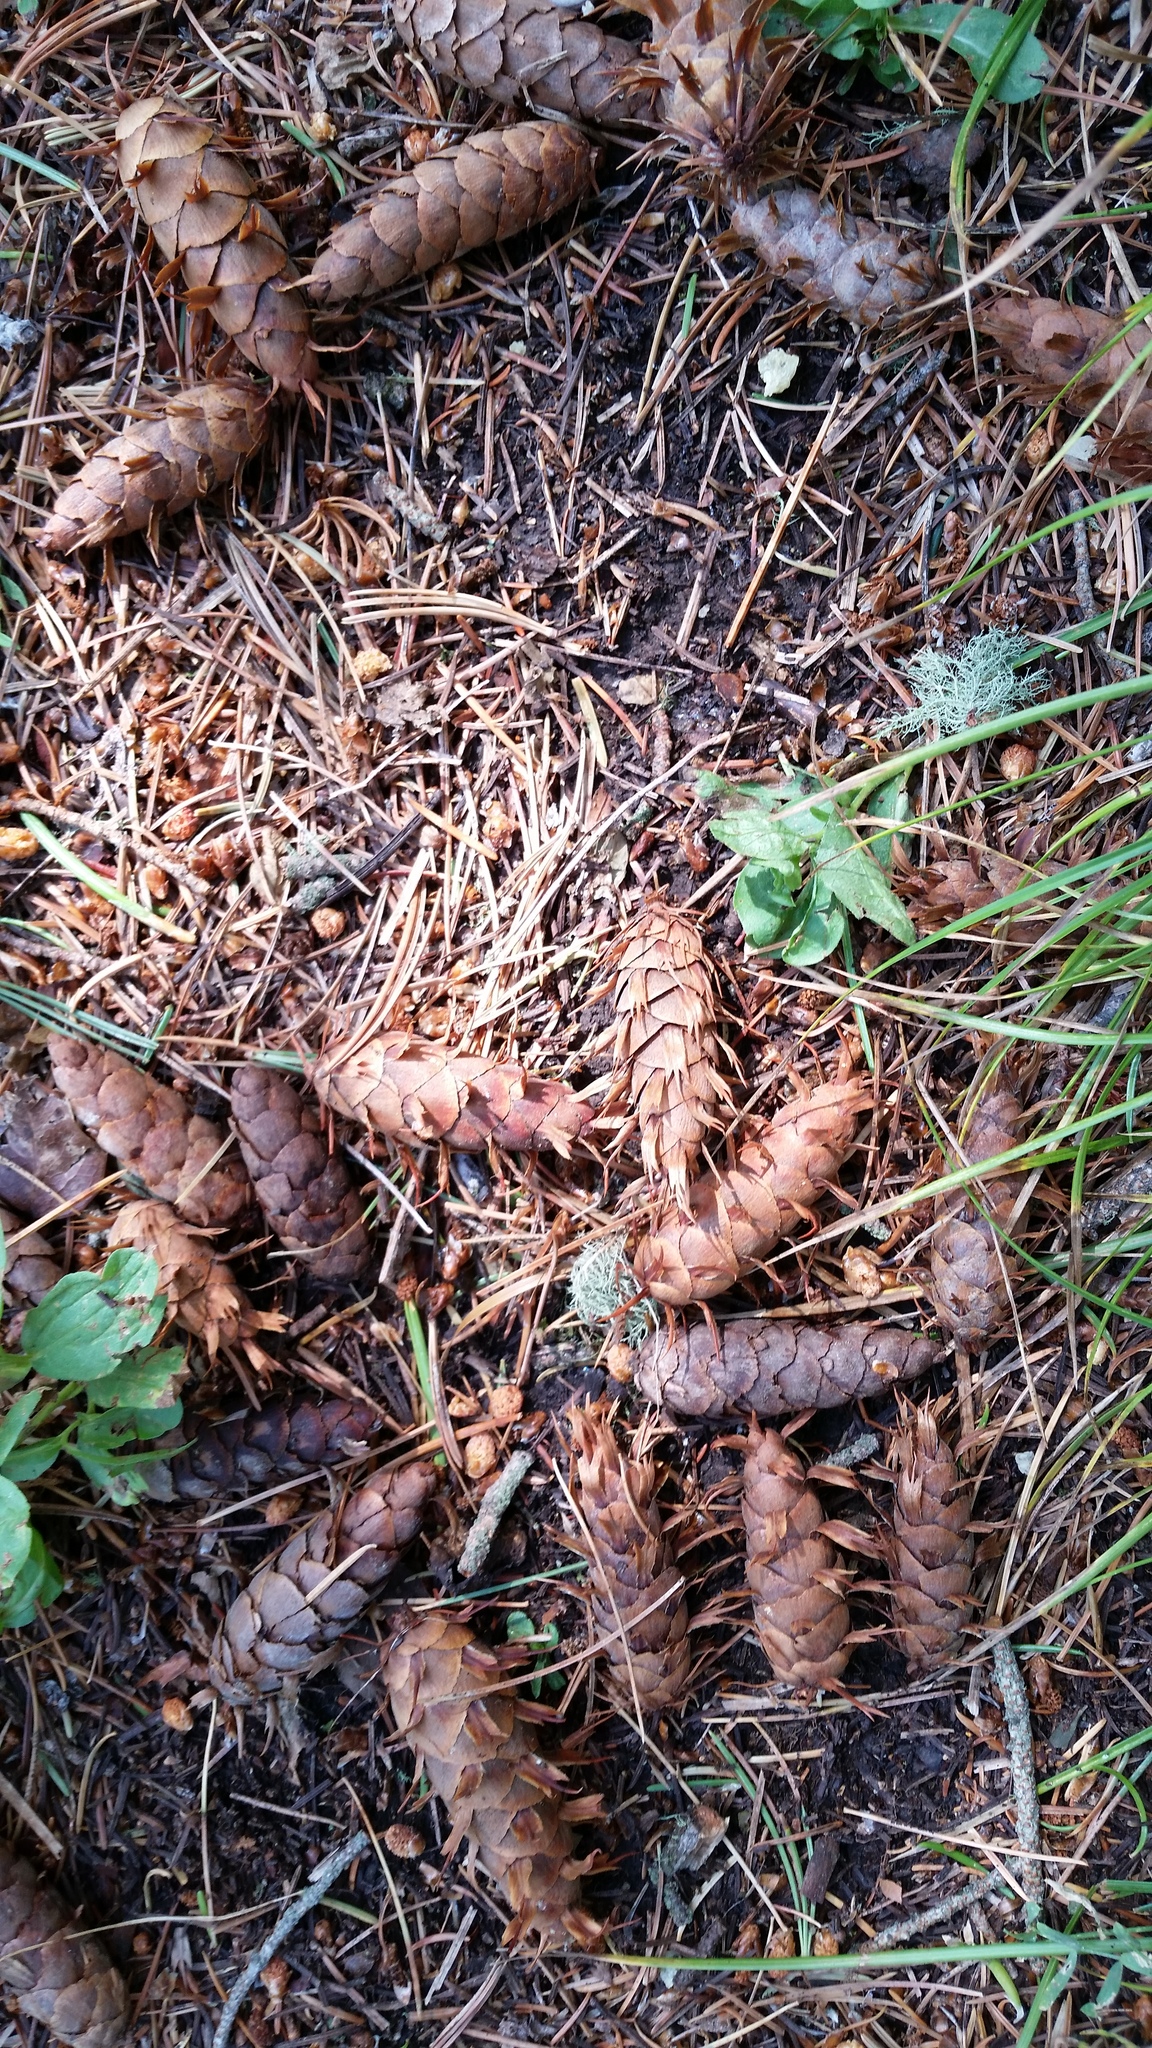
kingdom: Plantae
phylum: Tracheophyta
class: Pinopsida
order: Pinales
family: Pinaceae
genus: Pseudotsuga
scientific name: Pseudotsuga menziesii
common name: Douglas fir
